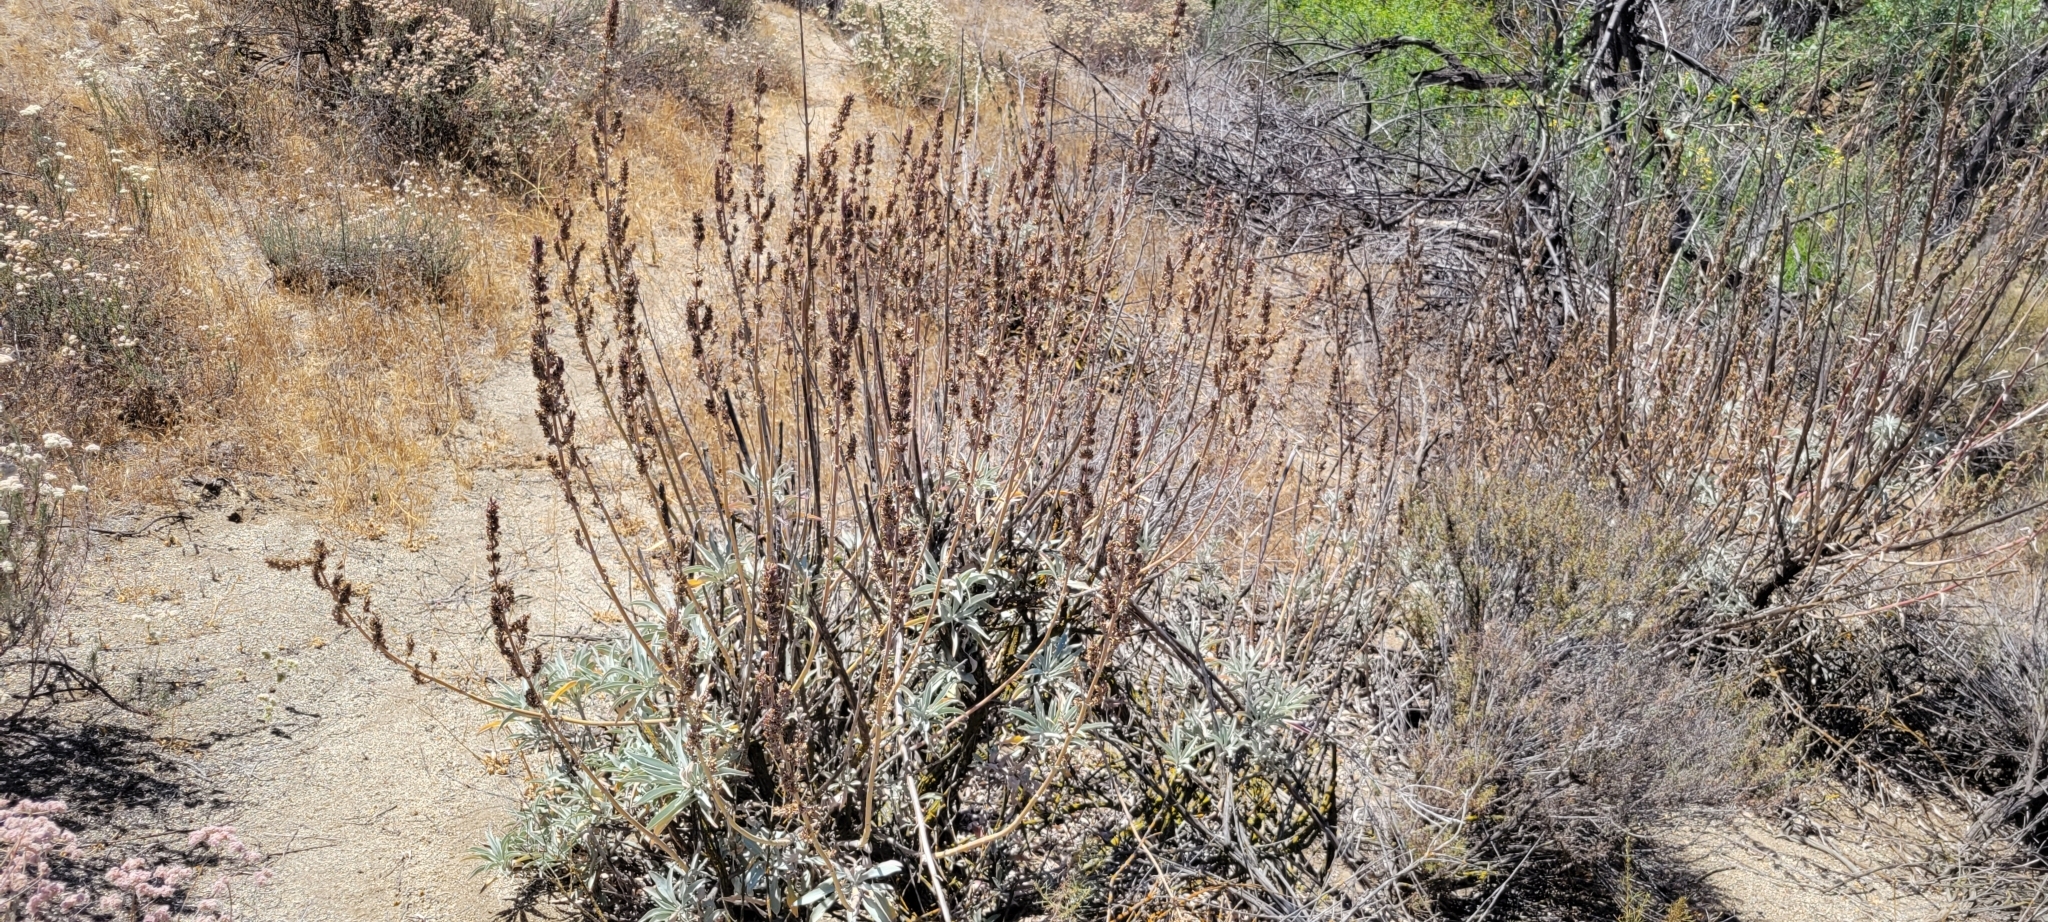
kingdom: Plantae
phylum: Tracheophyta
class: Magnoliopsida
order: Lamiales
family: Lamiaceae
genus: Salvia
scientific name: Salvia apiana
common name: White sage
